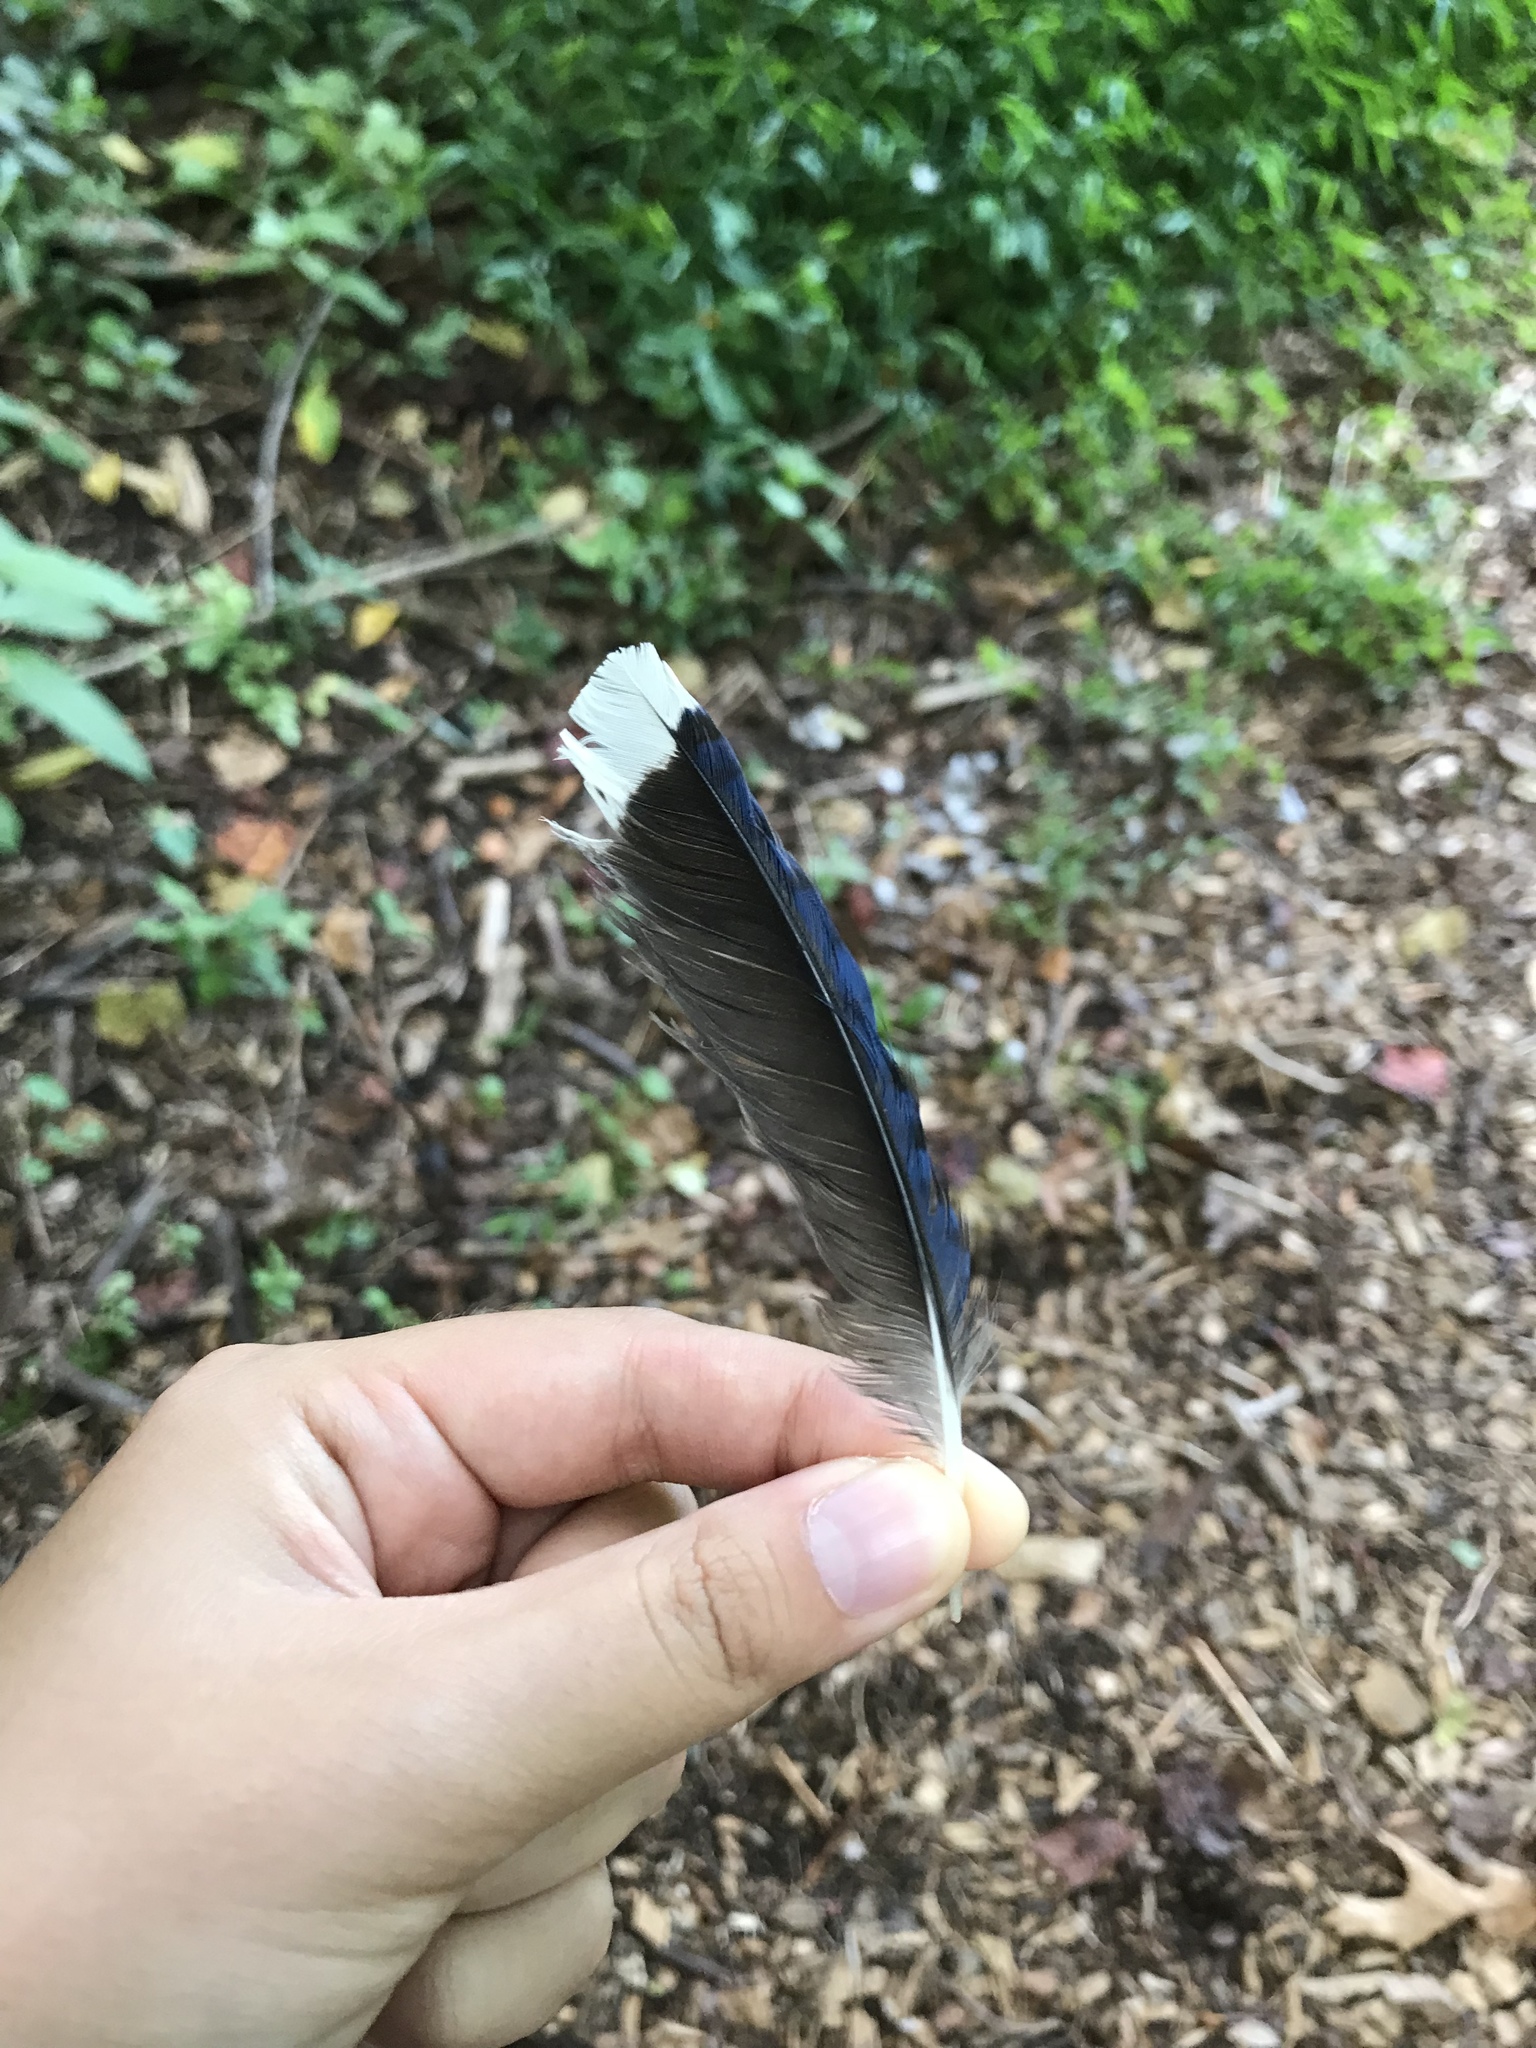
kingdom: Animalia
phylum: Chordata
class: Aves
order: Passeriformes
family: Corvidae
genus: Cyanocitta
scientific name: Cyanocitta cristata
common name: Blue jay
